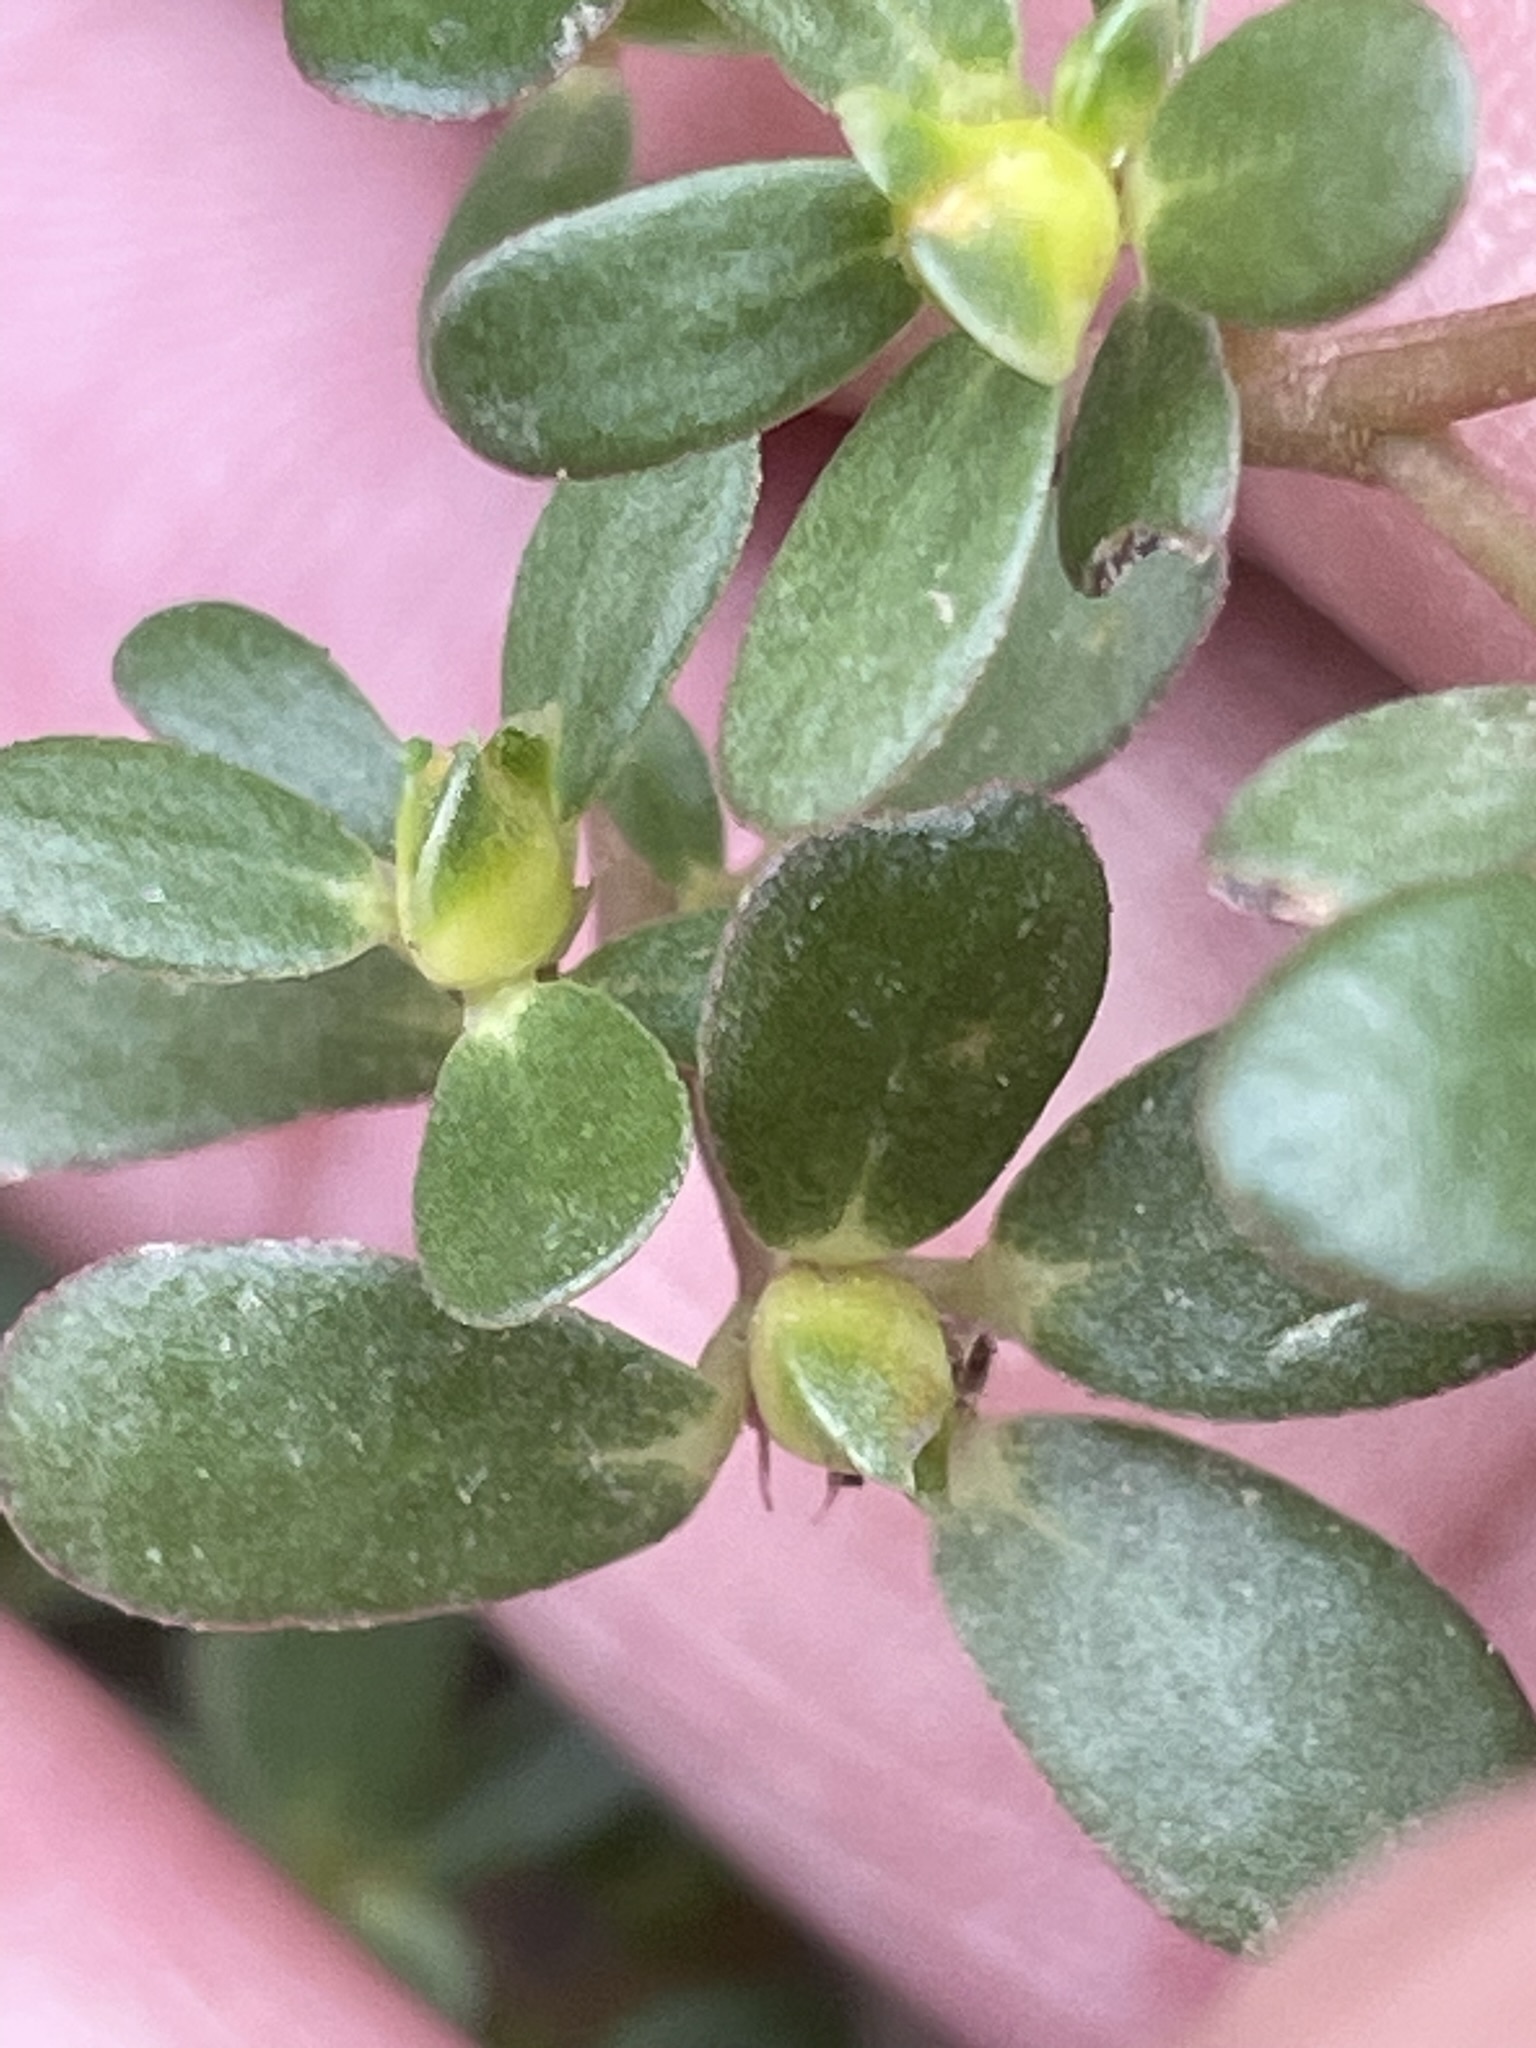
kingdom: Plantae
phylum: Tracheophyta
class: Magnoliopsida
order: Caryophyllales
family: Portulacaceae
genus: Portulaca
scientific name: Portulaca oleracea
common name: Common purslane
